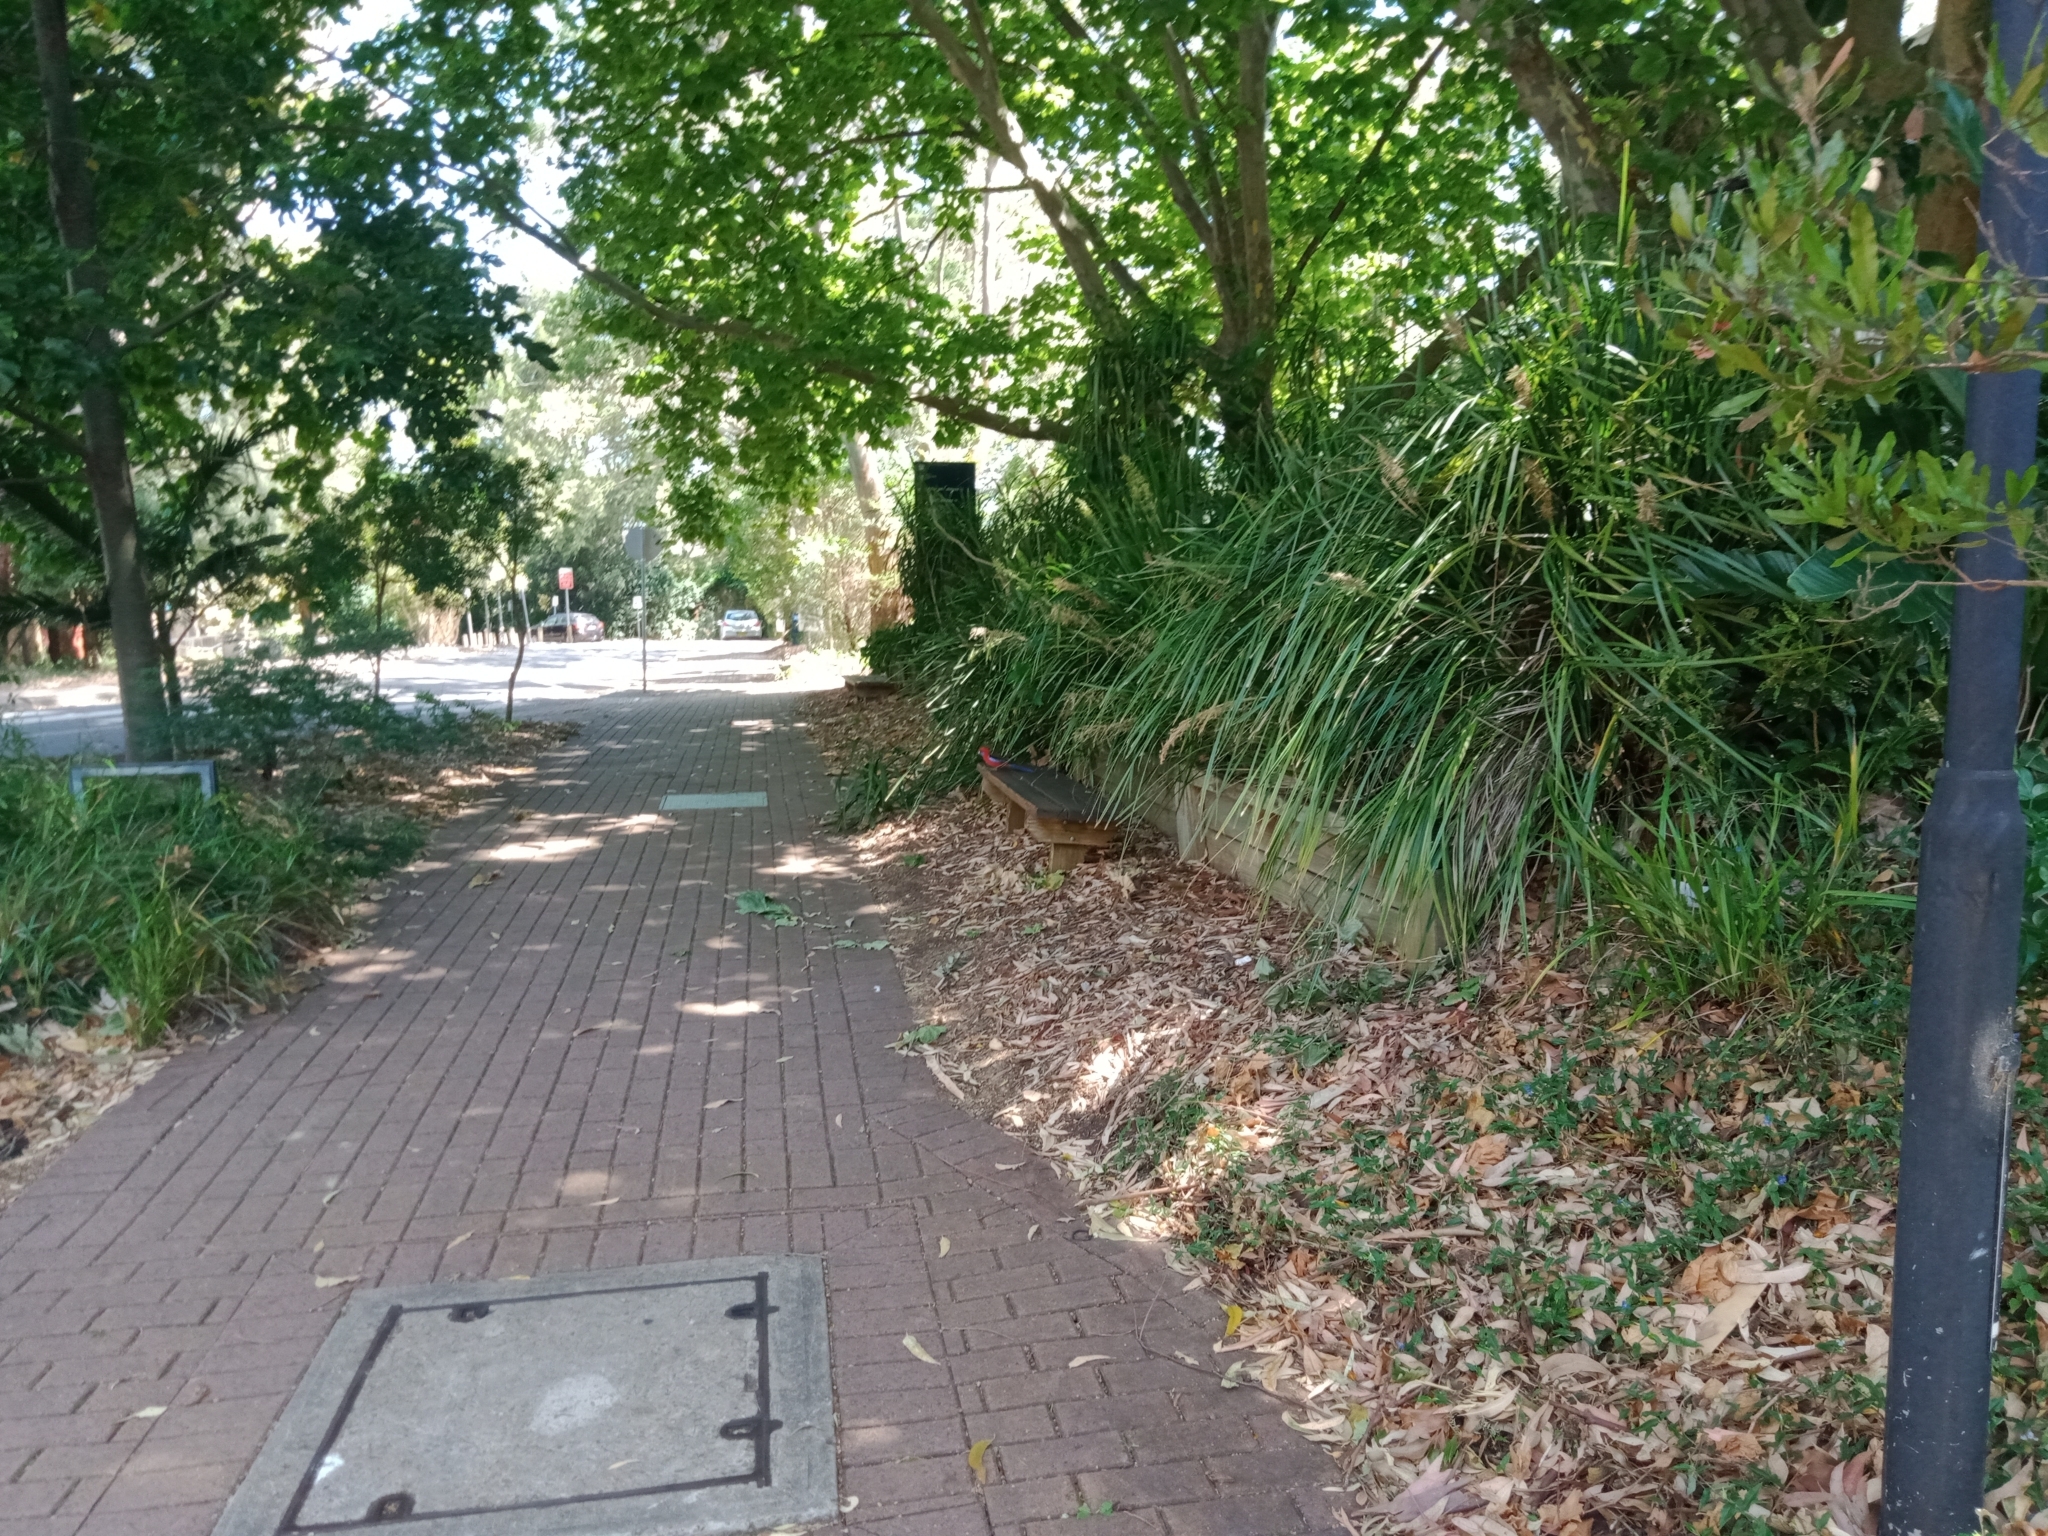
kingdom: Animalia
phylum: Chordata
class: Aves
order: Psittaciformes
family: Psittacidae
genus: Platycercus
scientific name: Platycercus elegans
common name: Crimson rosella
